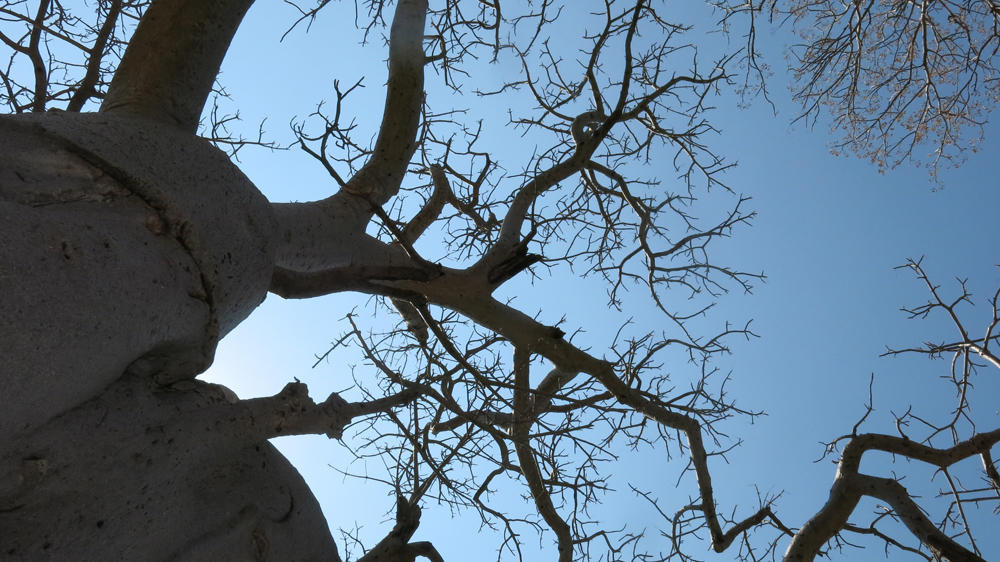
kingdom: Plantae
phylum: Tracheophyta
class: Magnoliopsida
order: Malvales
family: Malvaceae
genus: Adansonia
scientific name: Adansonia digitata
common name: Dead-rat-tree
